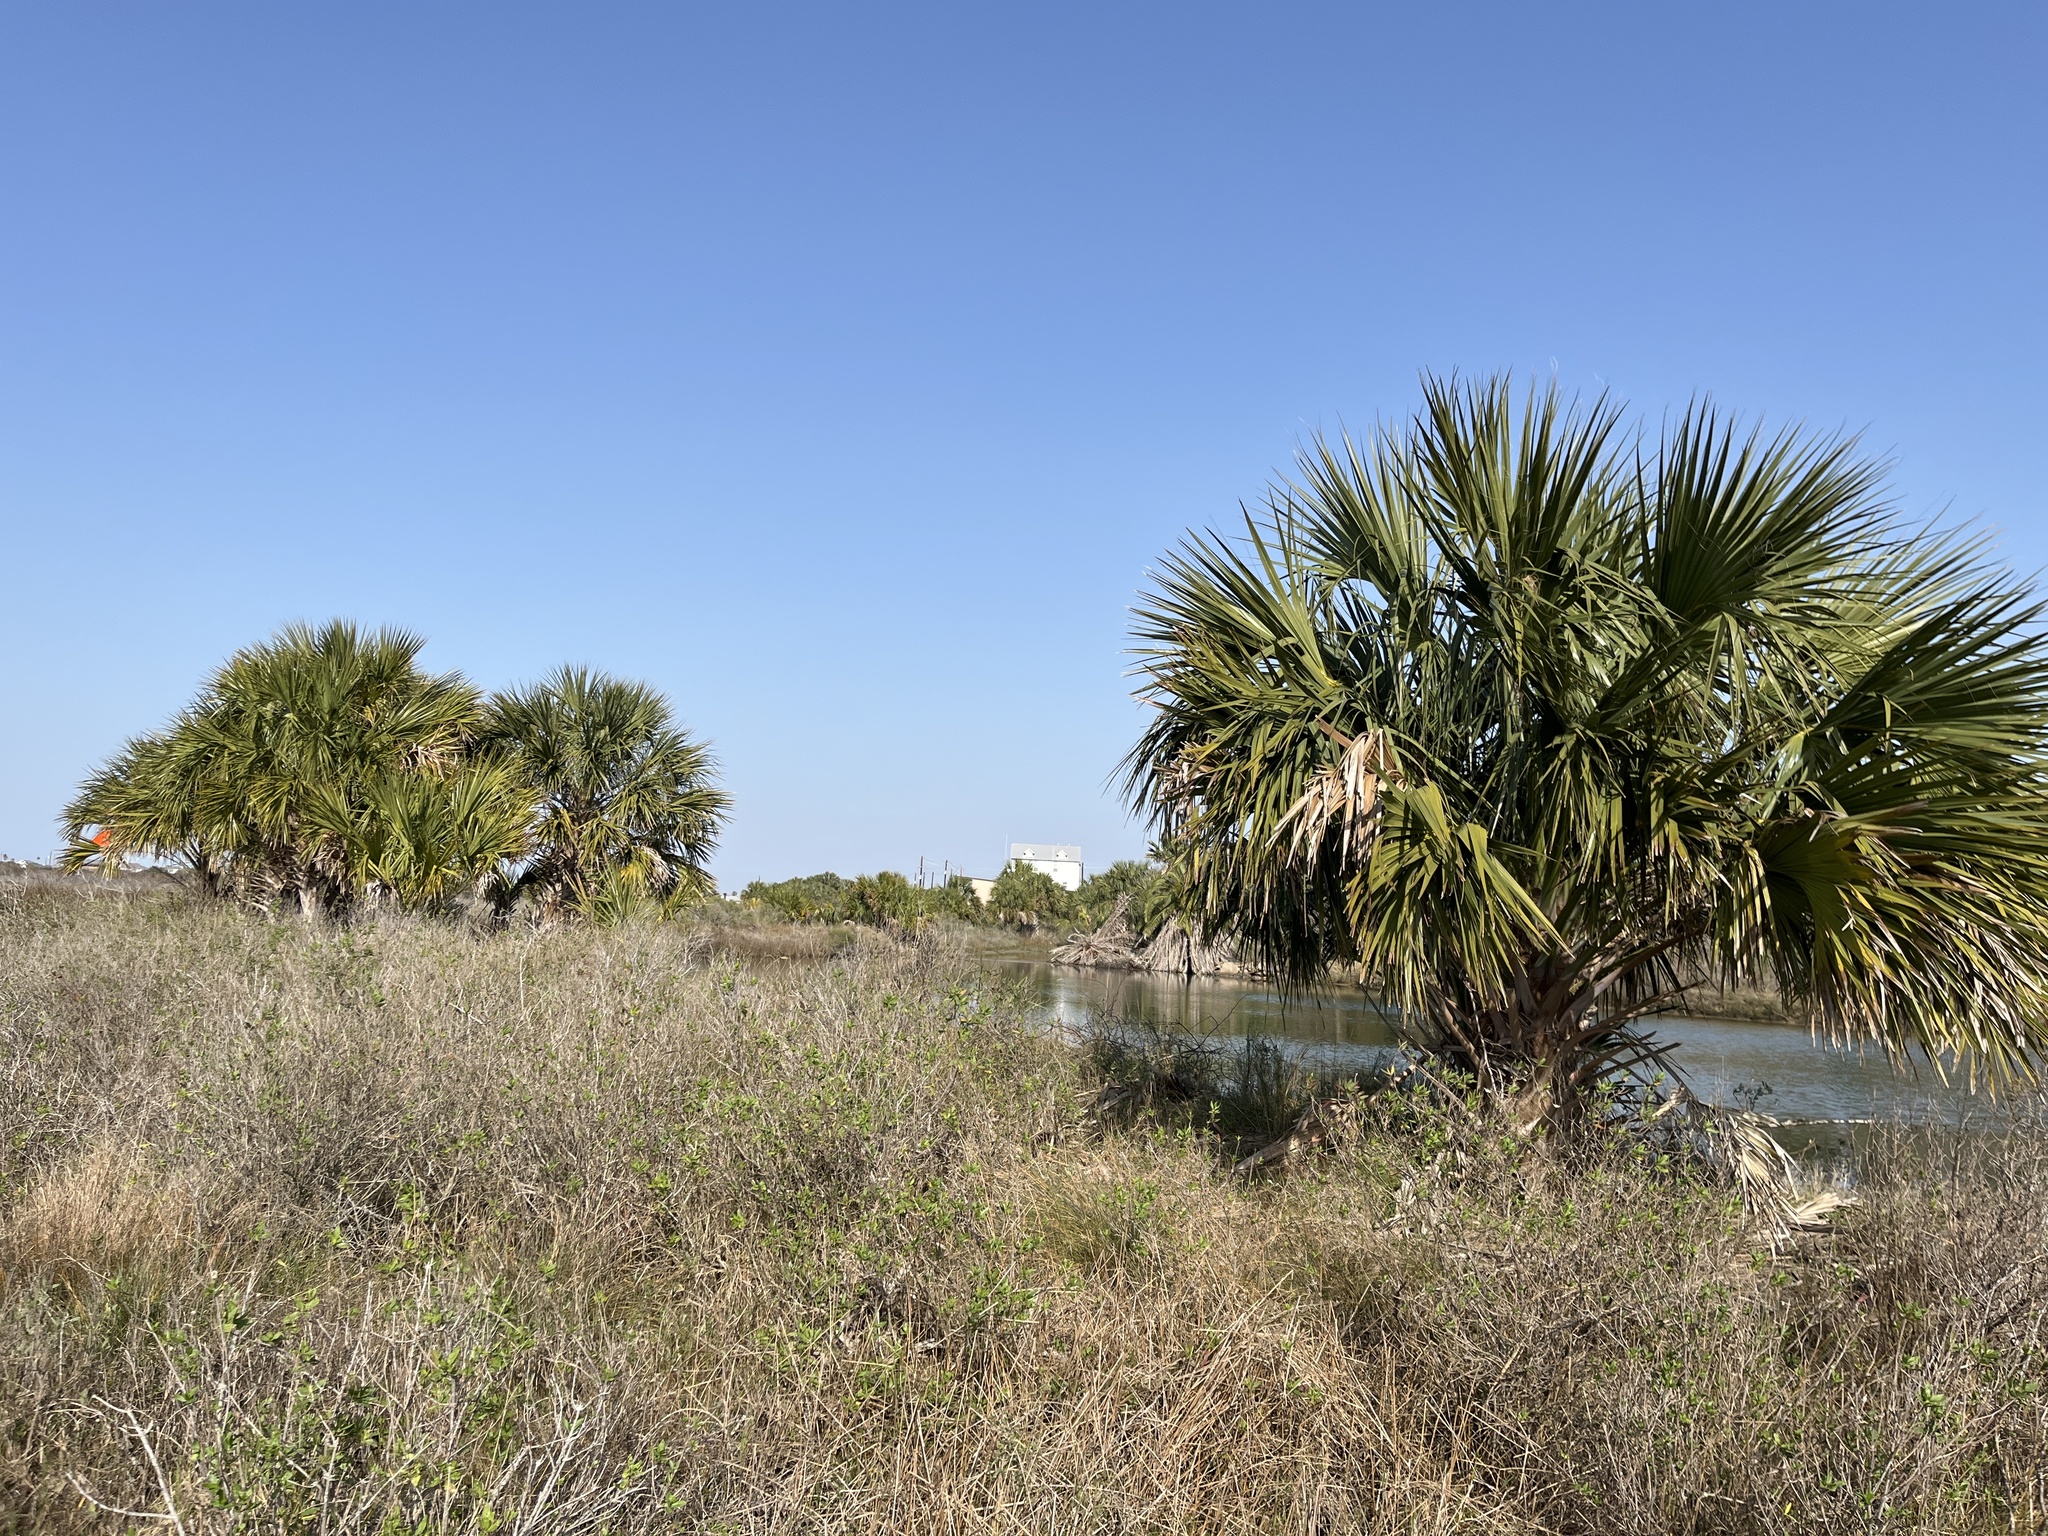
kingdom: Plantae
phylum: Tracheophyta
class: Liliopsida
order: Arecales
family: Arecaceae
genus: Sabal
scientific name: Sabal mexicana
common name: Texas palmetto
